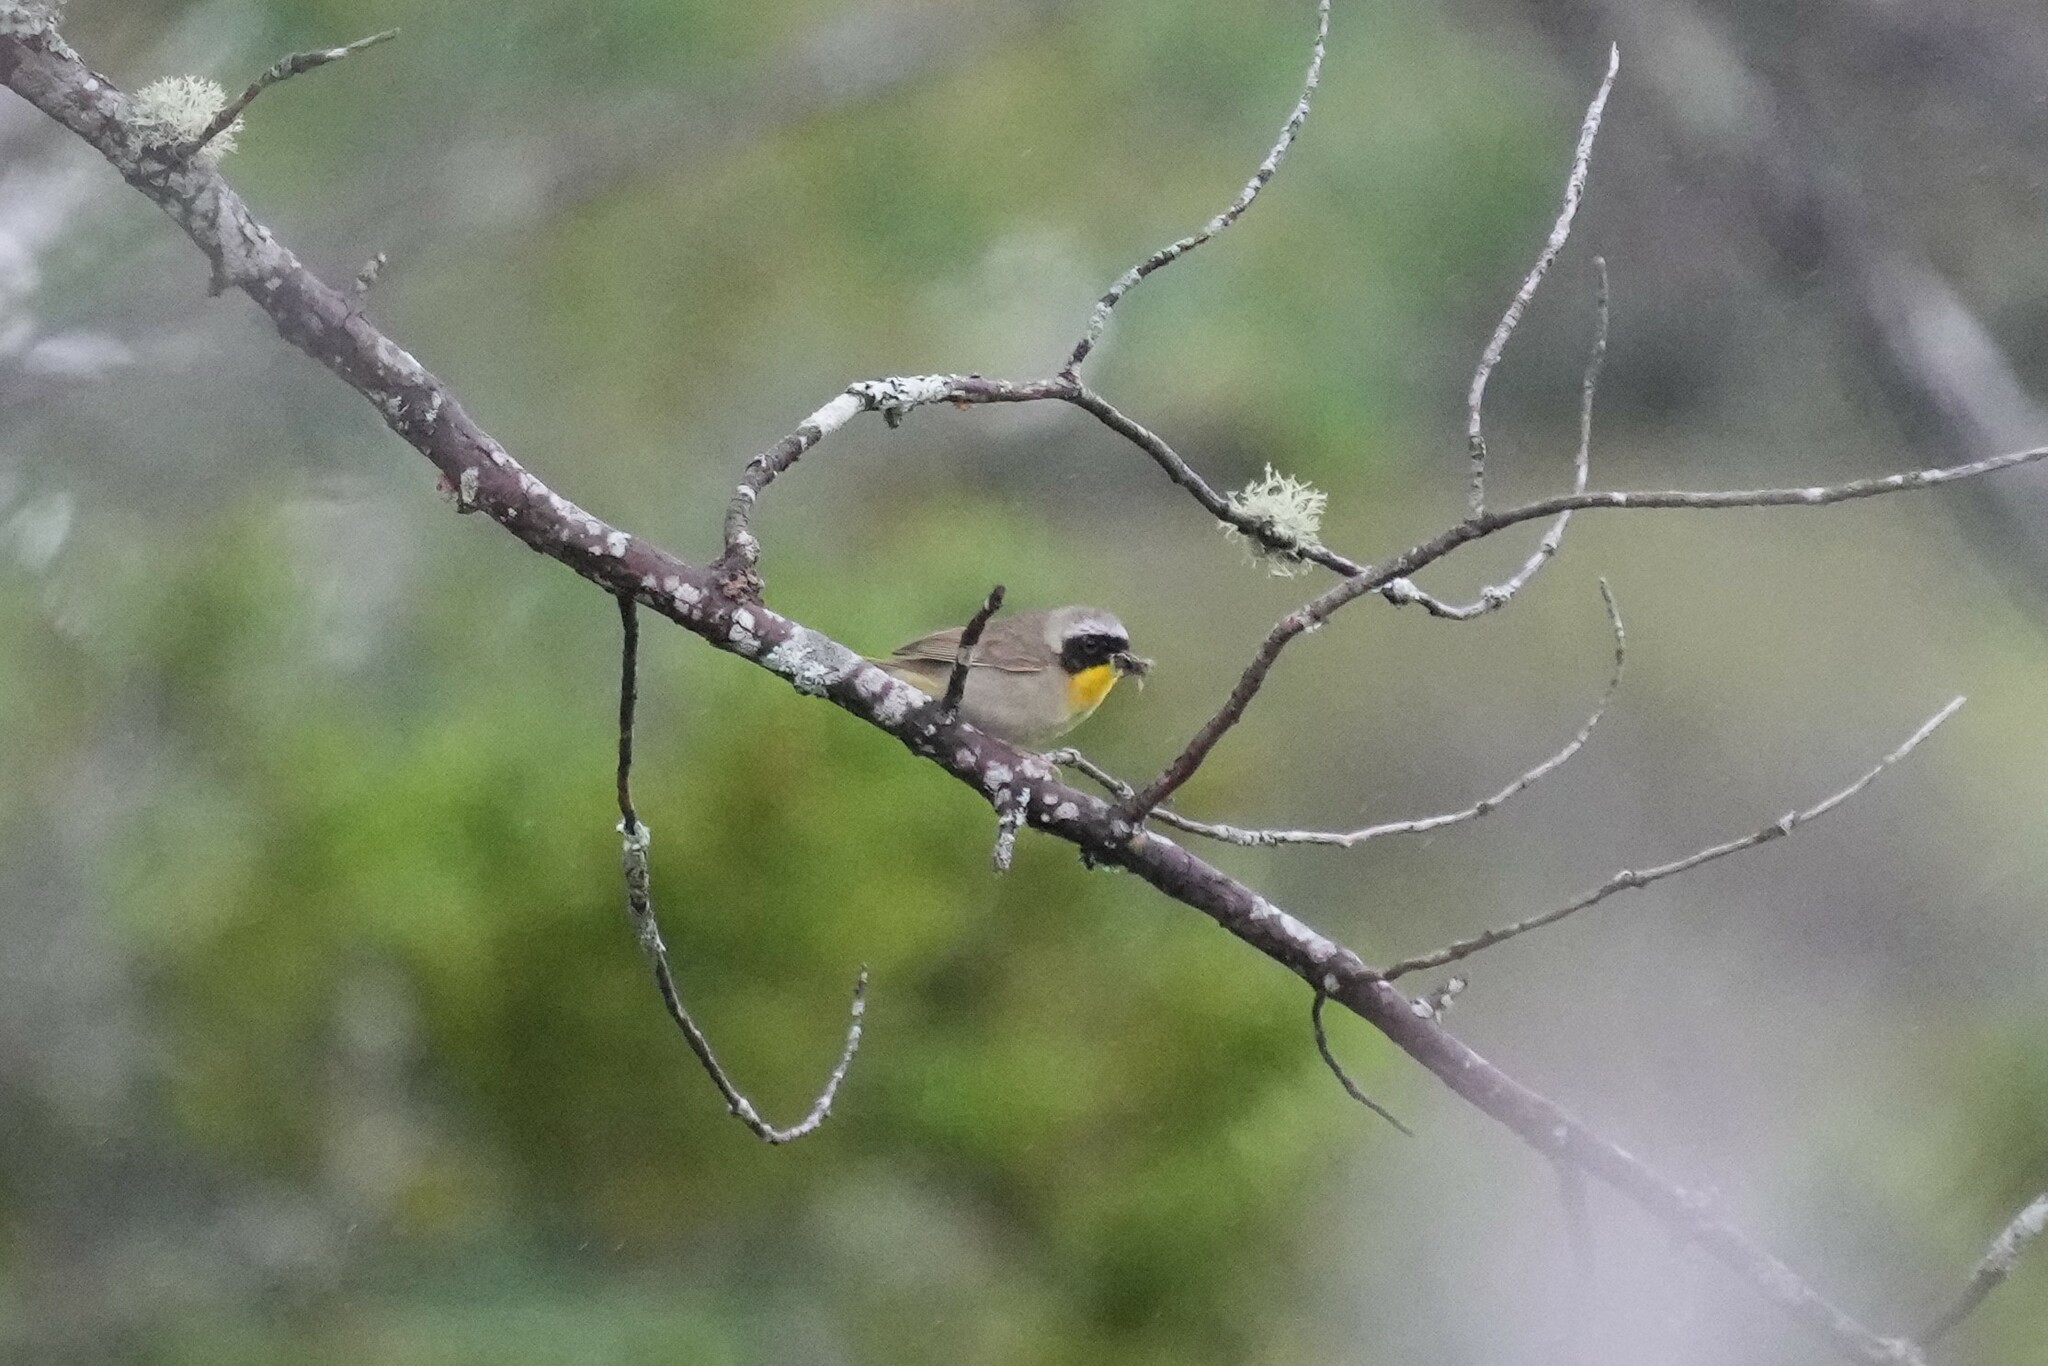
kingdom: Animalia
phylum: Chordata
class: Aves
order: Passeriformes
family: Parulidae
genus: Geothlypis
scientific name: Geothlypis trichas
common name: Common yellowthroat
